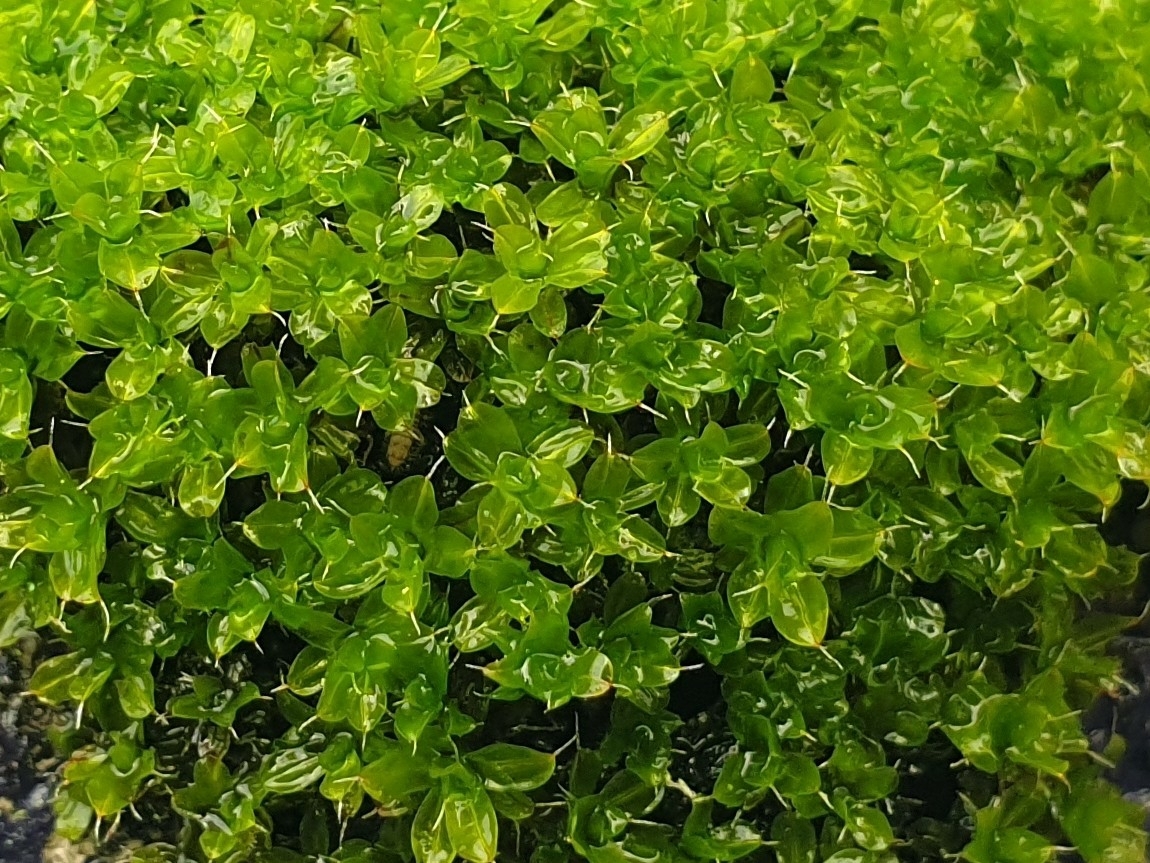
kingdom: Plantae
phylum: Bryophyta
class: Bryopsida
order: Pottiales
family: Pottiaceae
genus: Syntrichia
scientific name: Syntrichia montana
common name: Intermediate screw-moss
